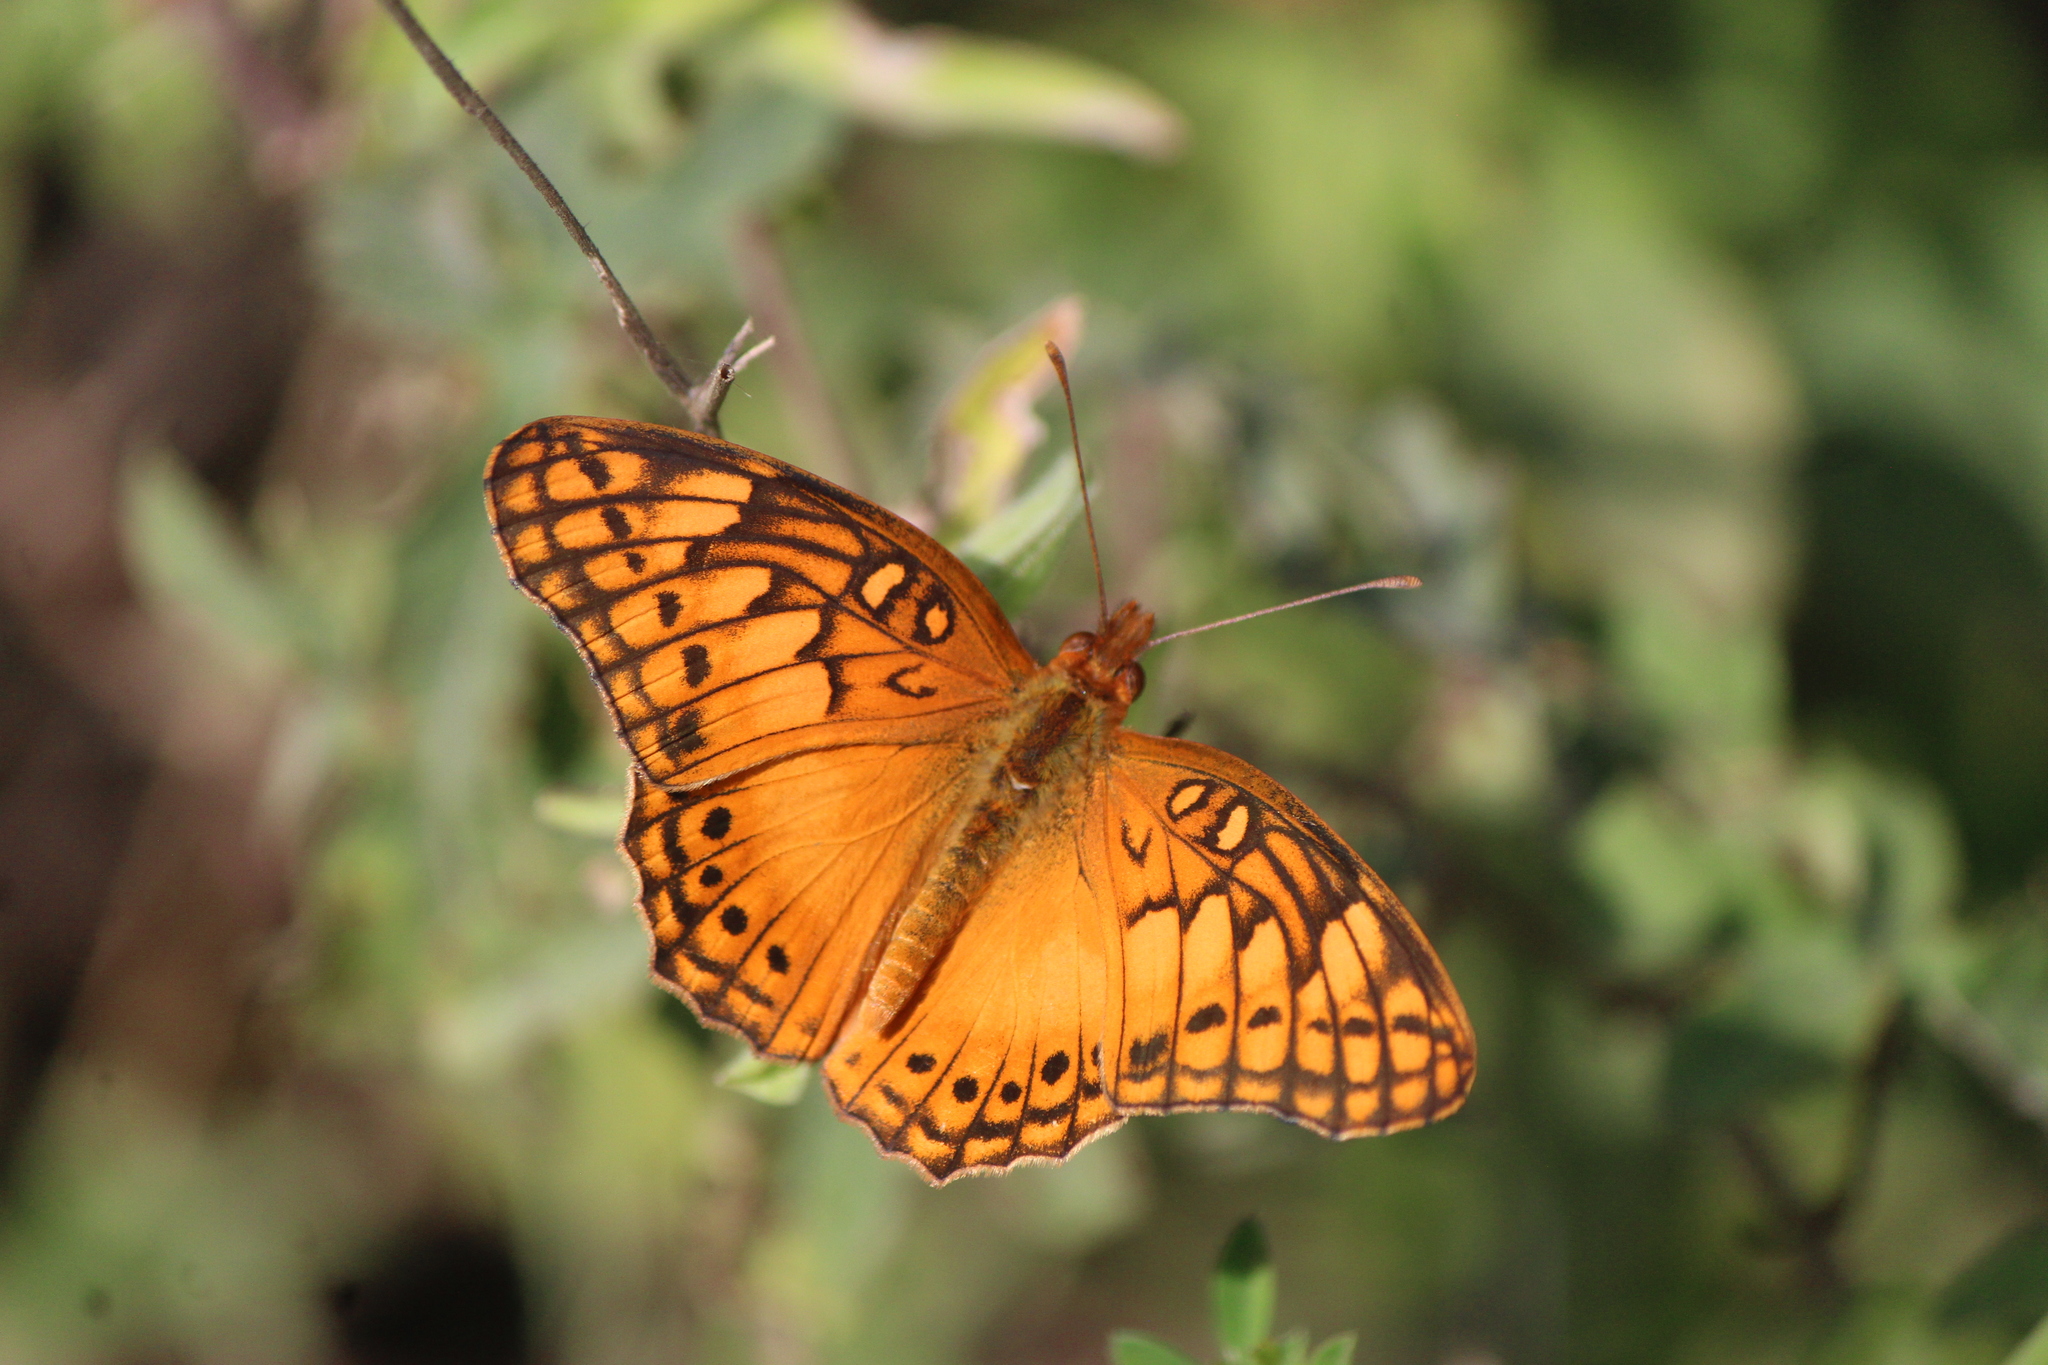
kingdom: Animalia
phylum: Arthropoda
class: Insecta
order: Lepidoptera
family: Nymphalidae
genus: Euptoieta
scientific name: Euptoieta hegesia
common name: Mexican fritillary
